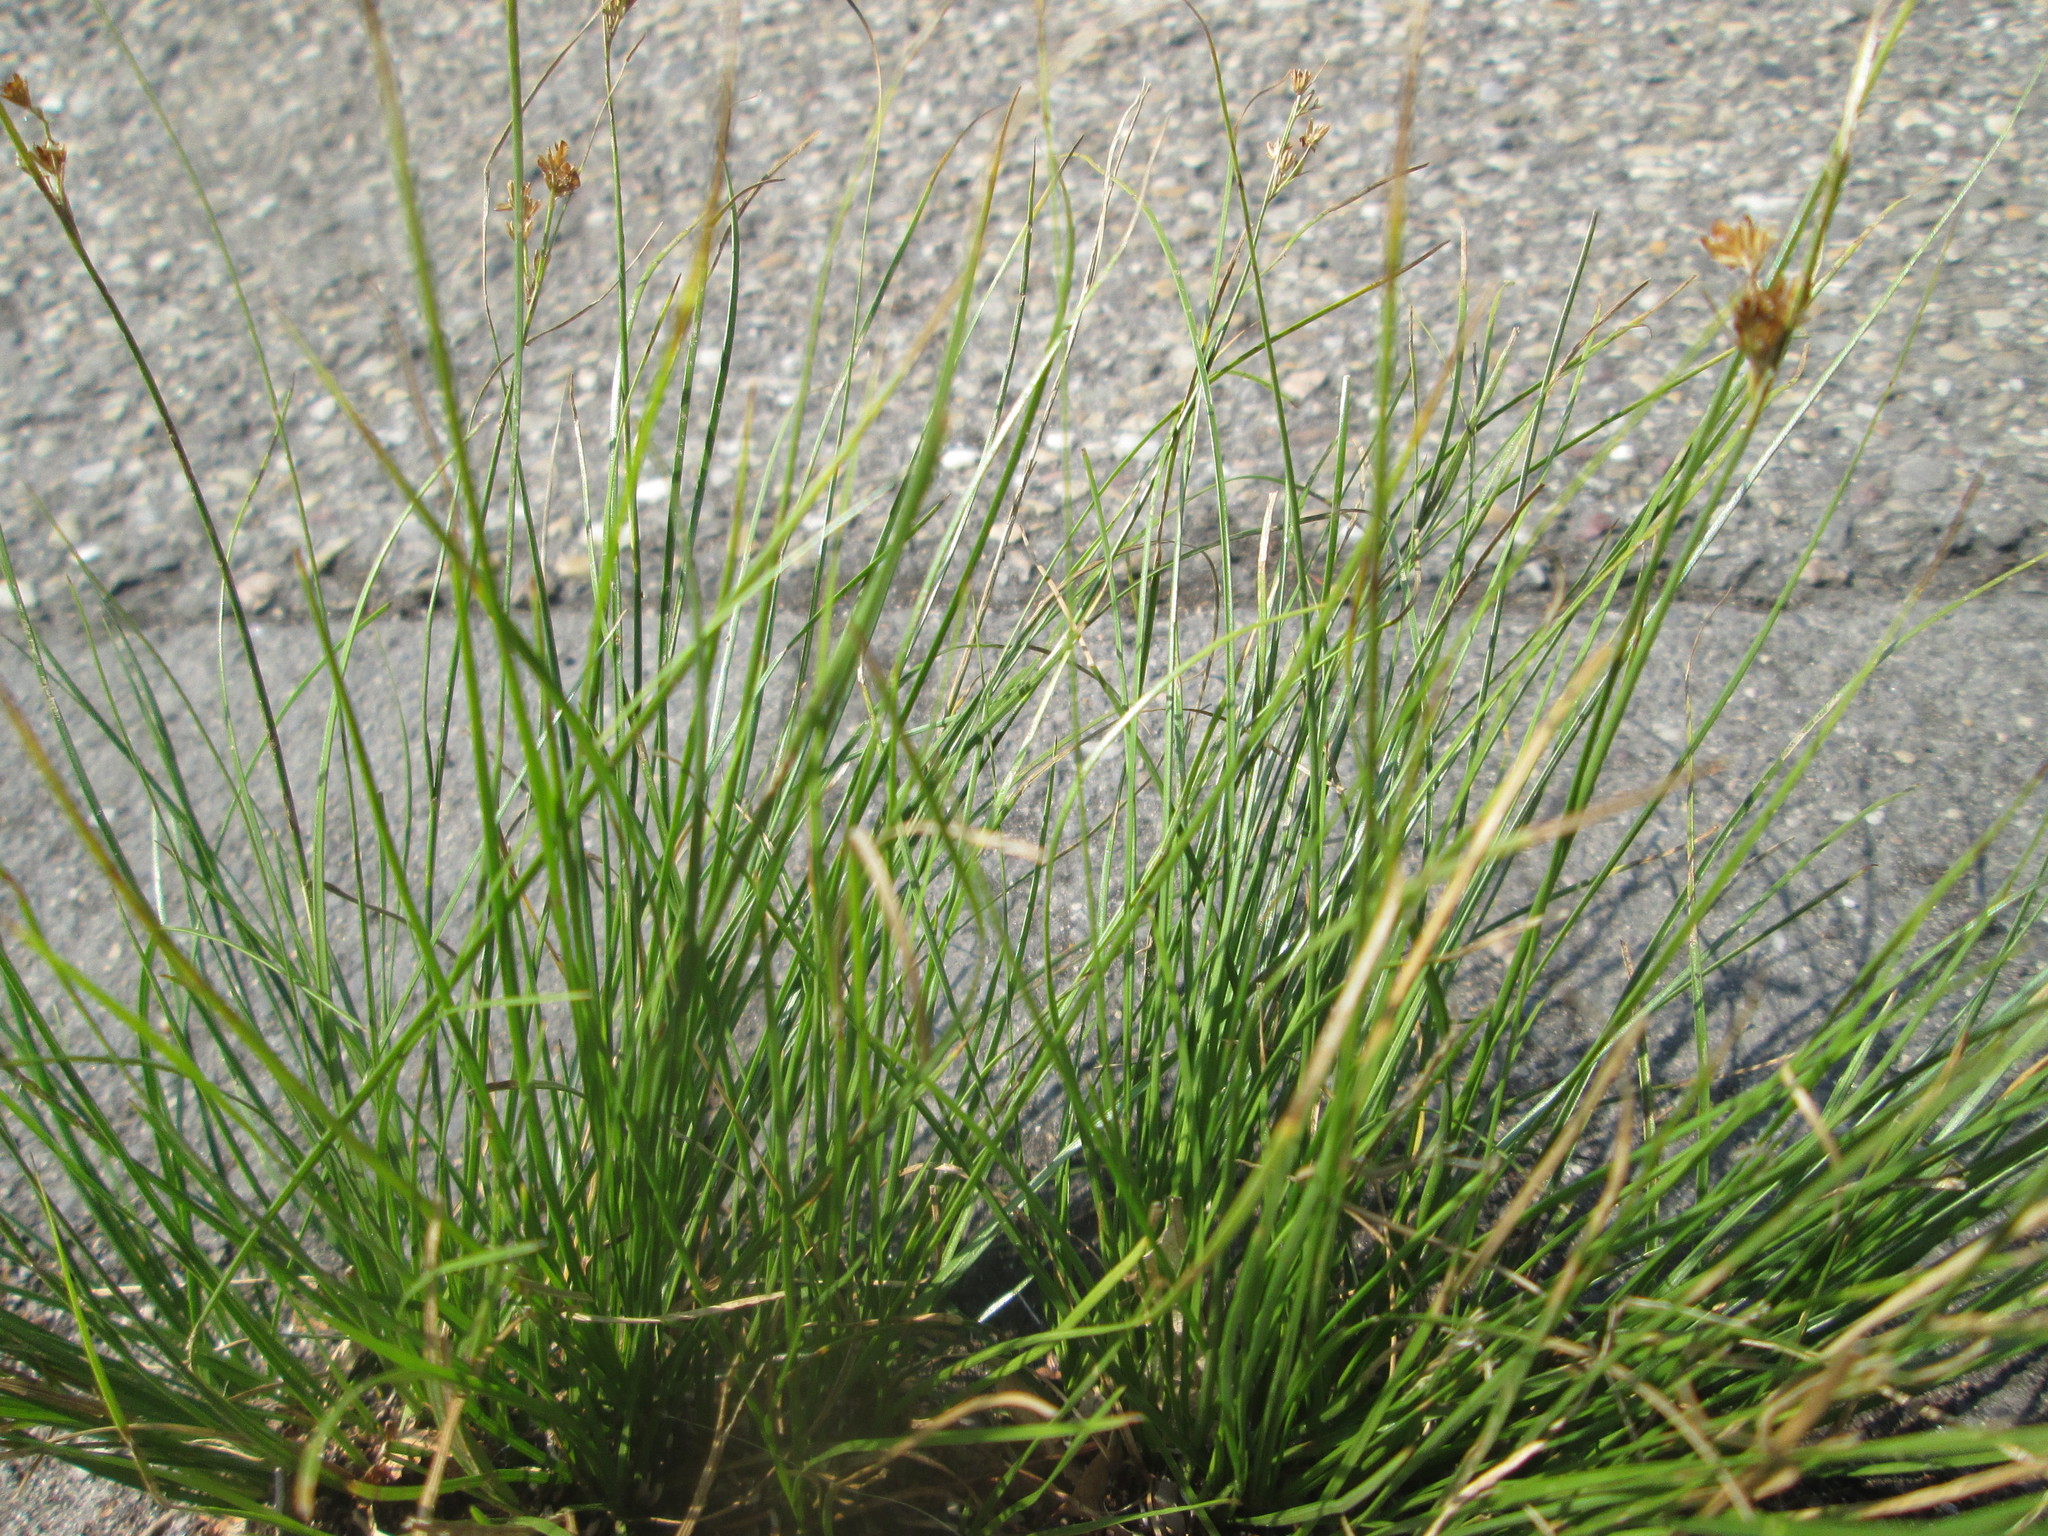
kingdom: Plantae
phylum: Tracheophyta
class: Liliopsida
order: Poales
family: Juncaceae
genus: Juncus
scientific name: Juncus tenuis
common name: Slender rush
